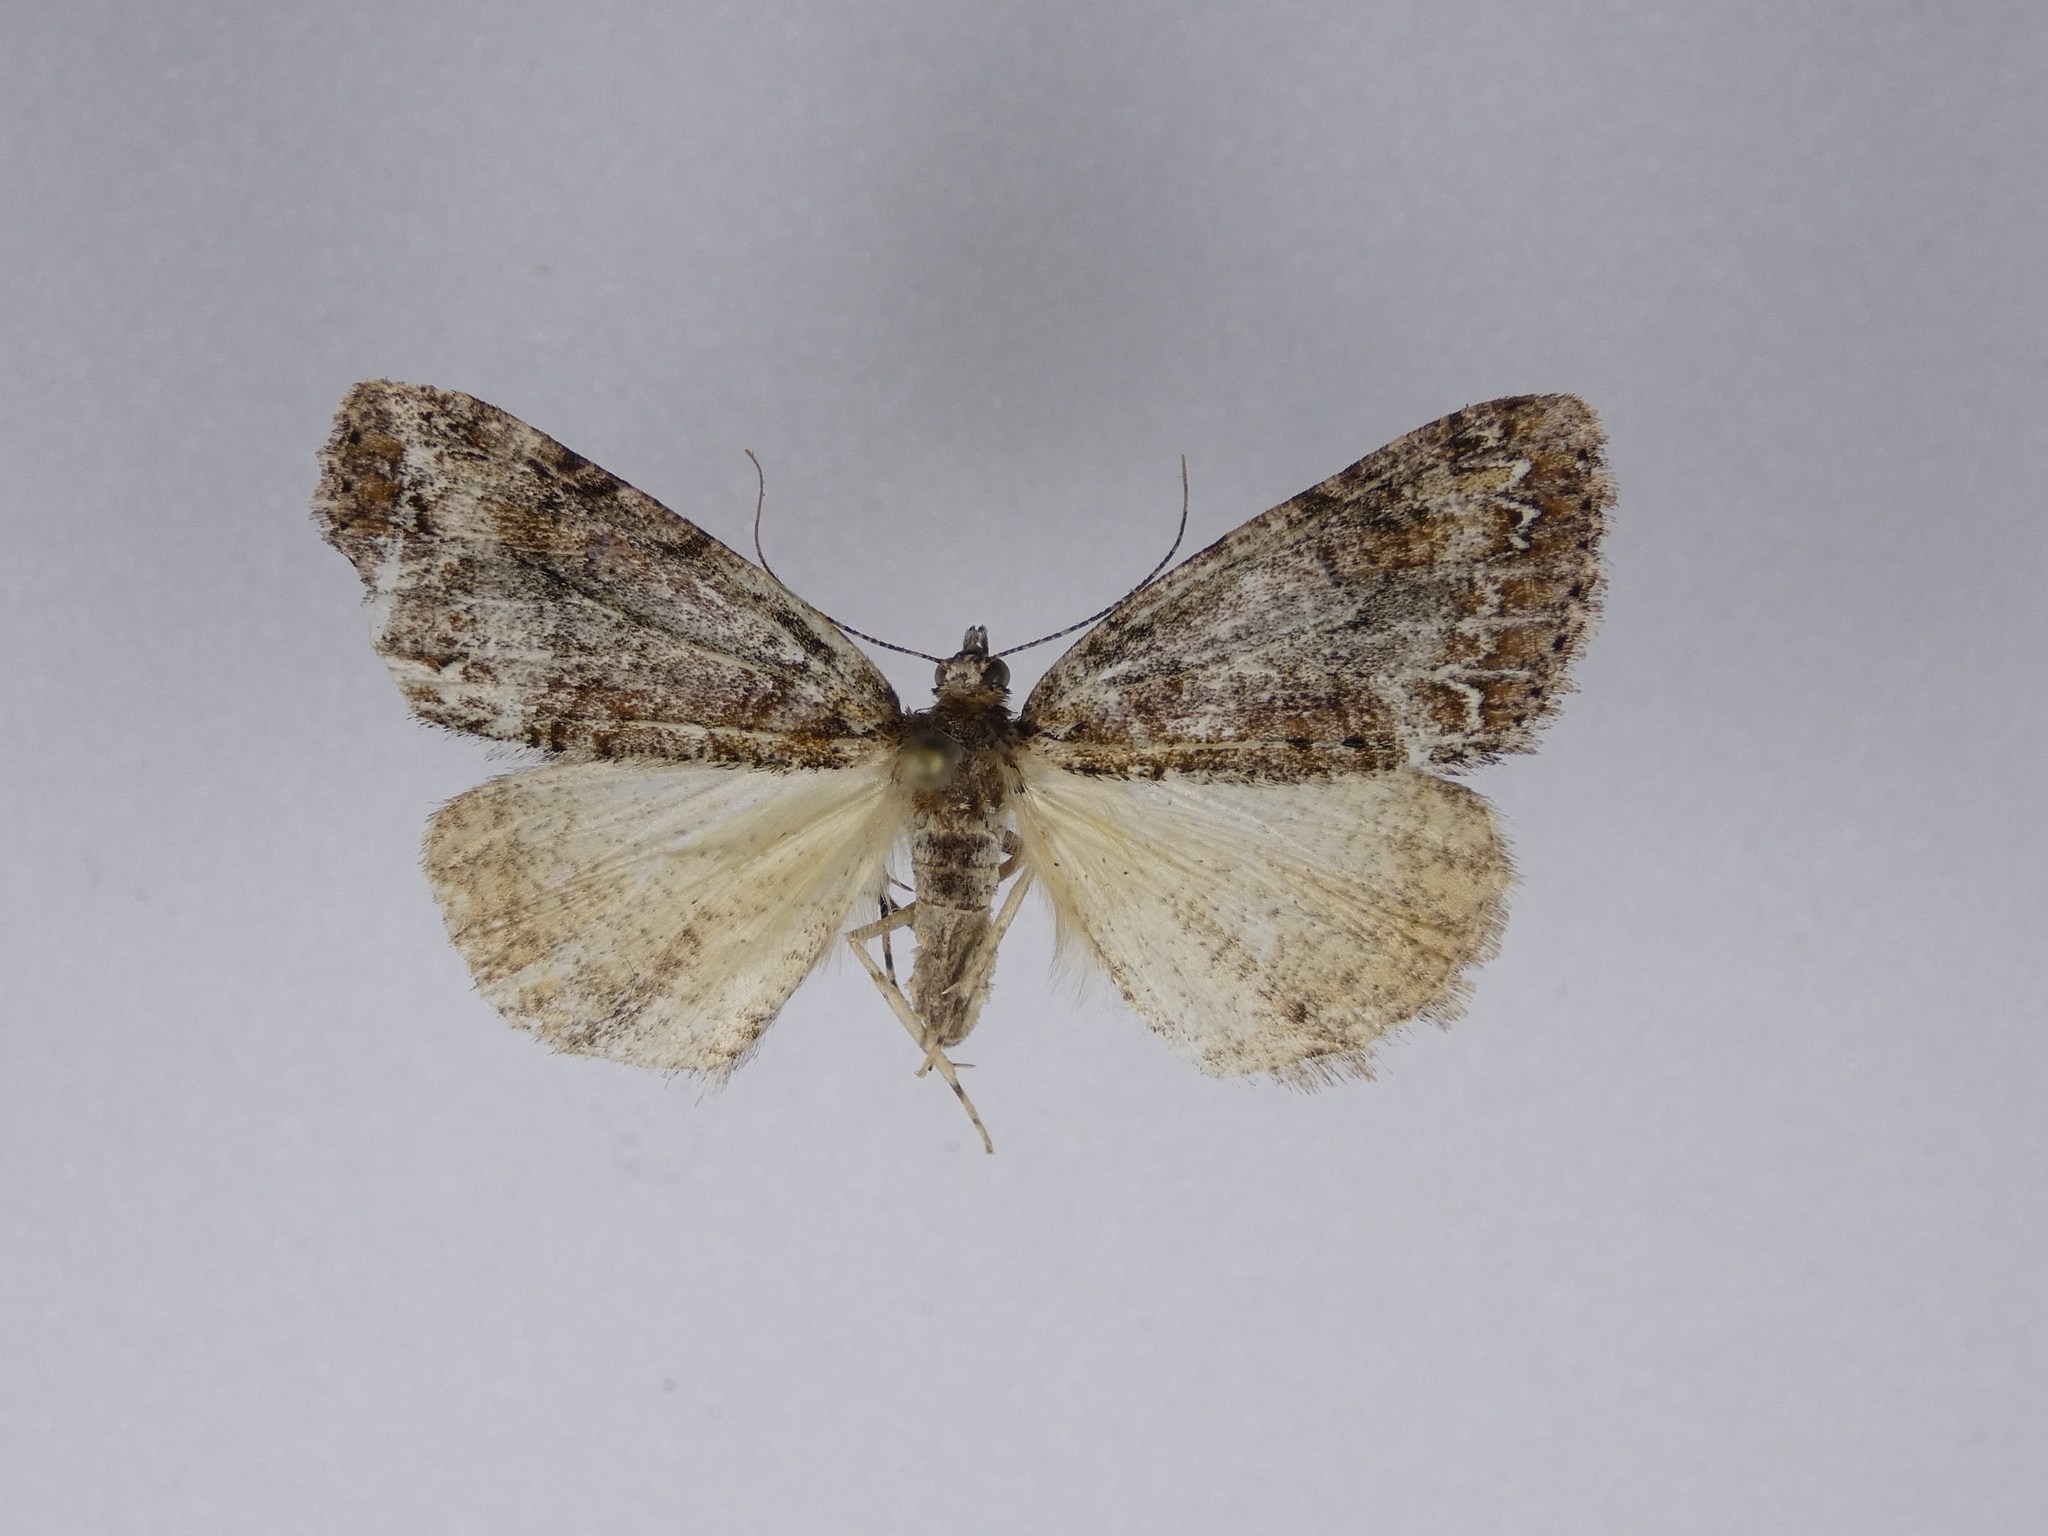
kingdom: Animalia
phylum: Arthropoda
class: Insecta
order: Lepidoptera
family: Geometridae
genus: Pseudocoremia
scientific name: Pseudocoremia suavis
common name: Common forest looper
